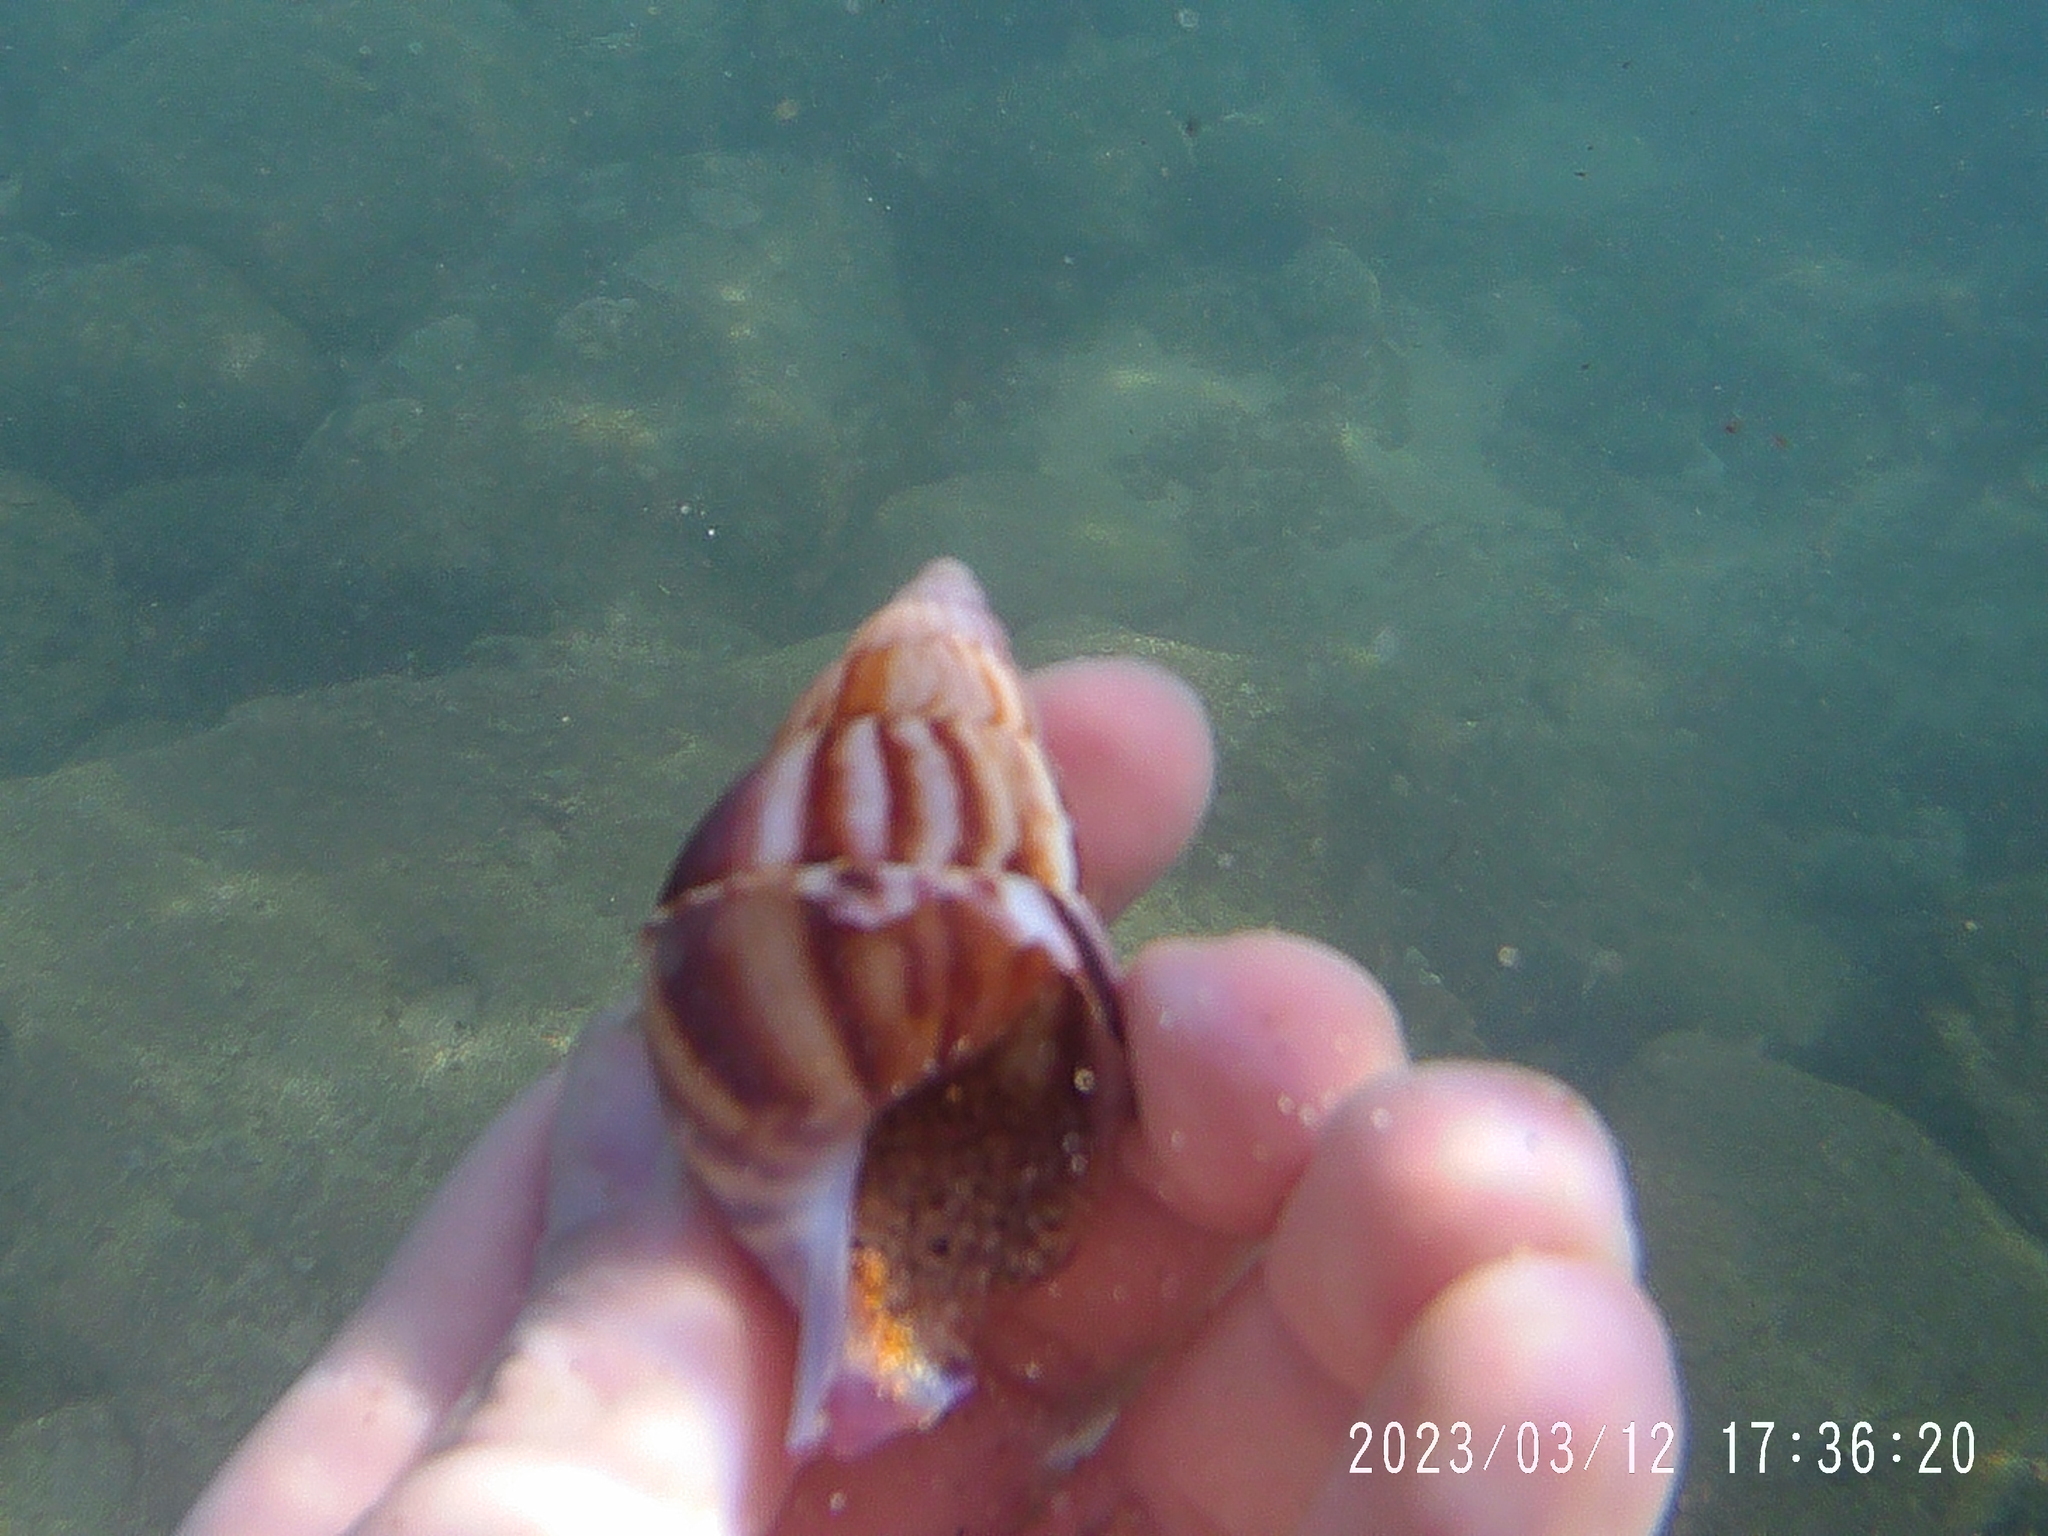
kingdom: Animalia
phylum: Mollusca
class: Gastropoda
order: Stylommatophora
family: Achatinidae
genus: Lissachatina
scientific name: Lissachatina fulica
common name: Giant african snail
